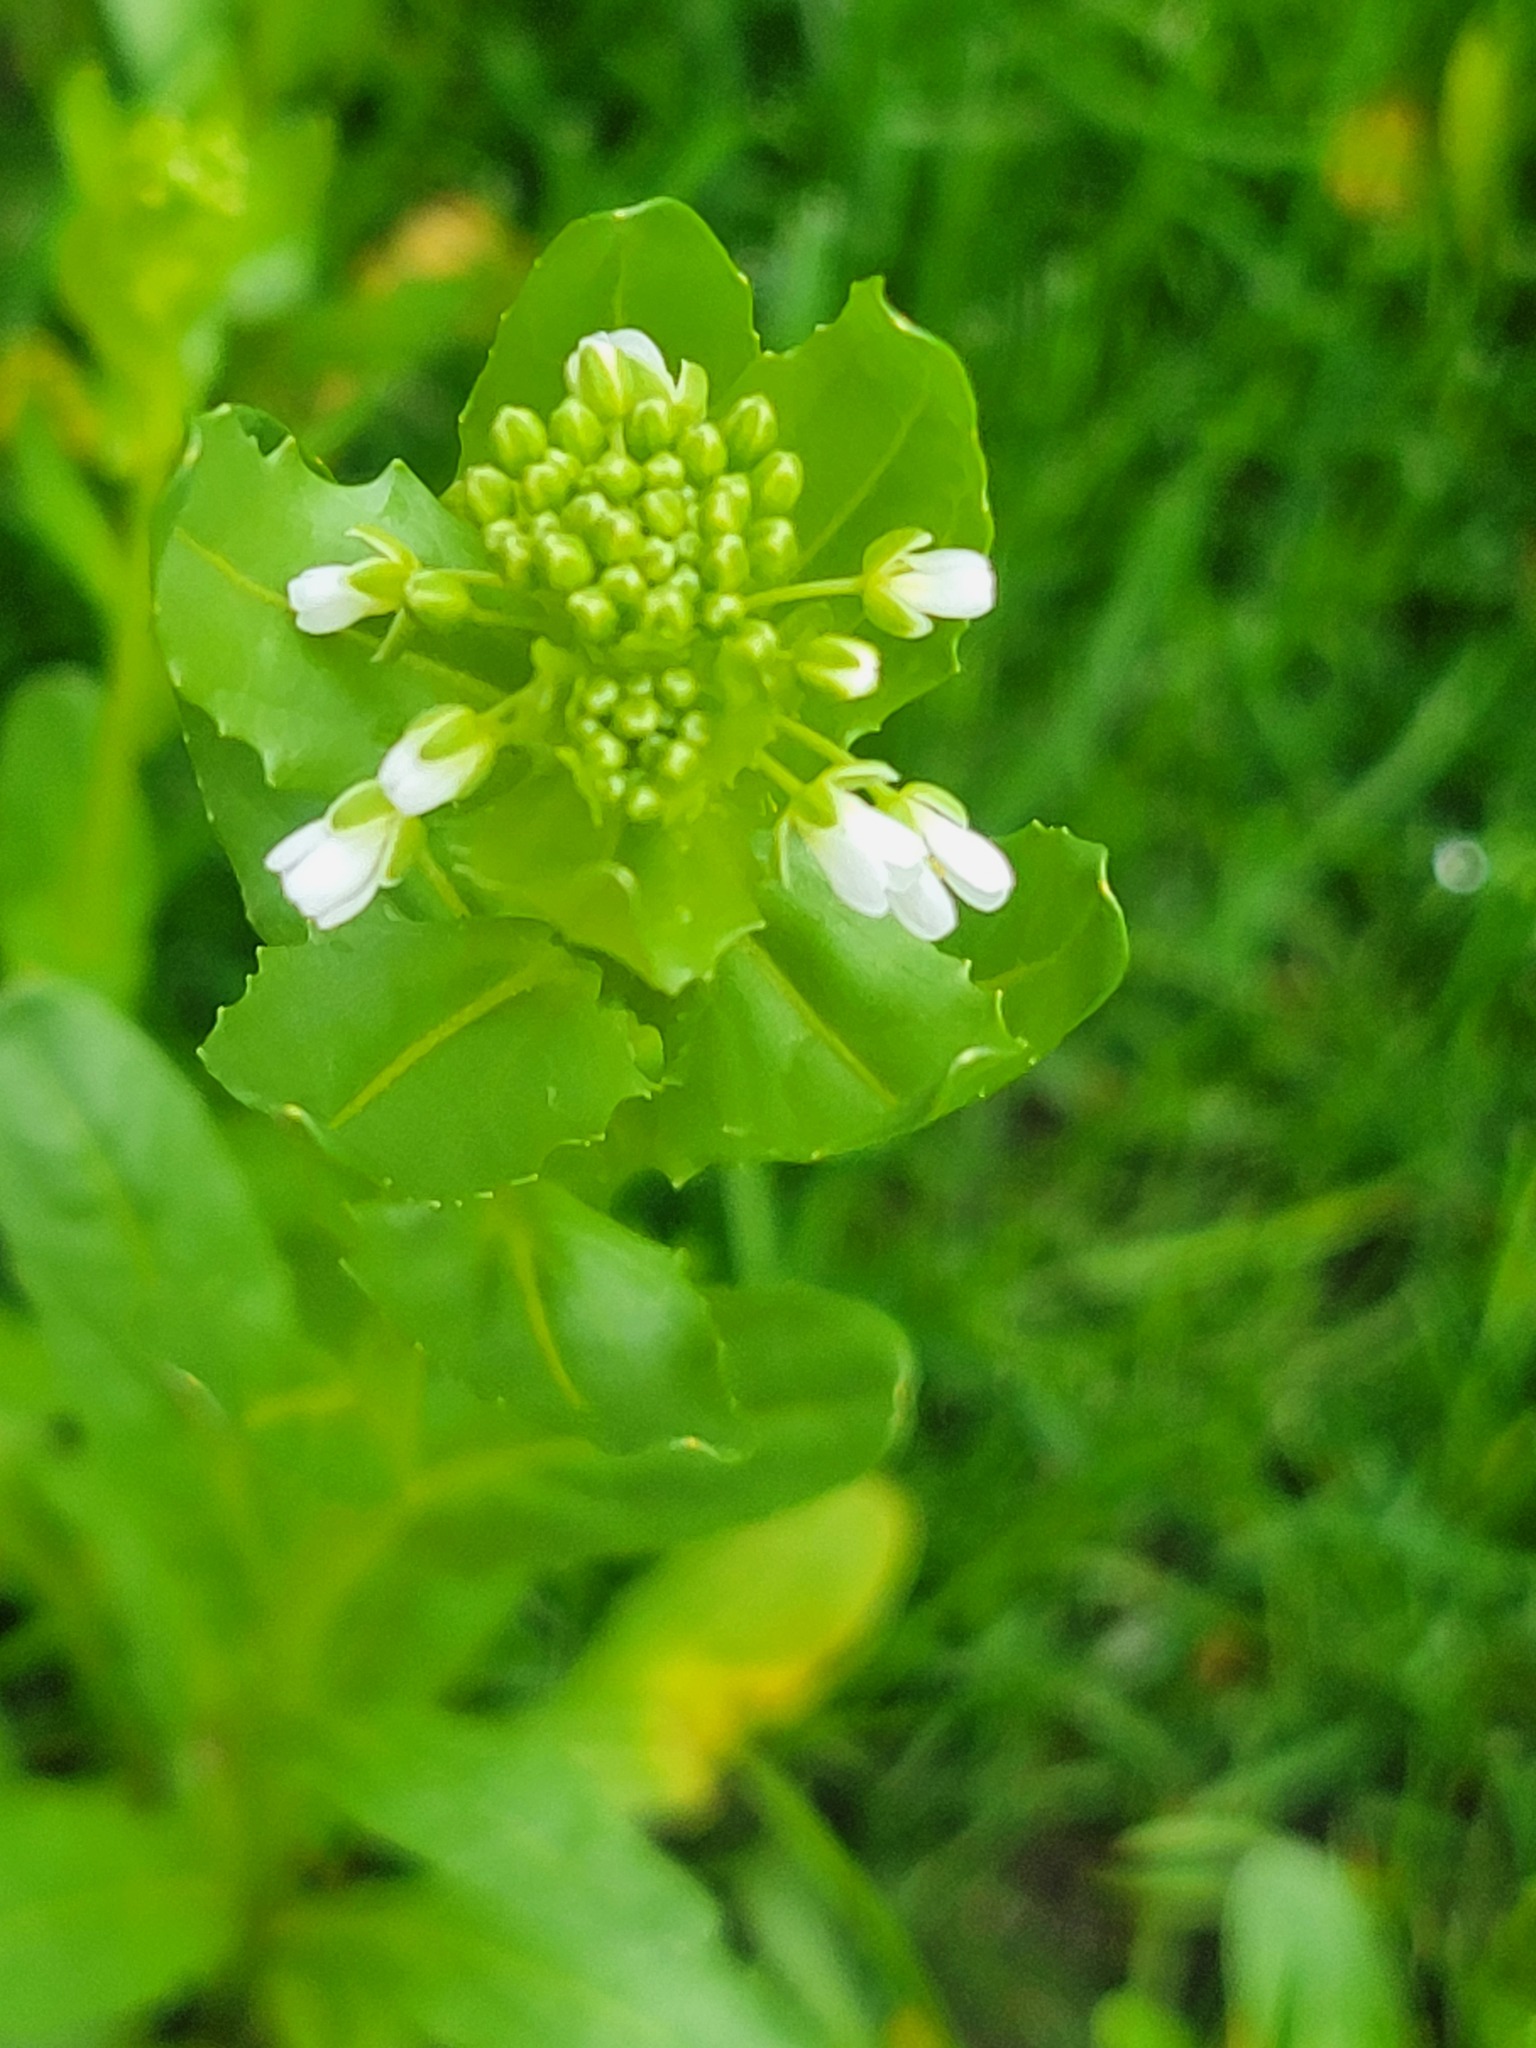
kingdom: Plantae
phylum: Tracheophyta
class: Magnoliopsida
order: Brassicales
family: Brassicaceae
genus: Thlaspi
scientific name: Thlaspi arvense
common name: Field pennycress
